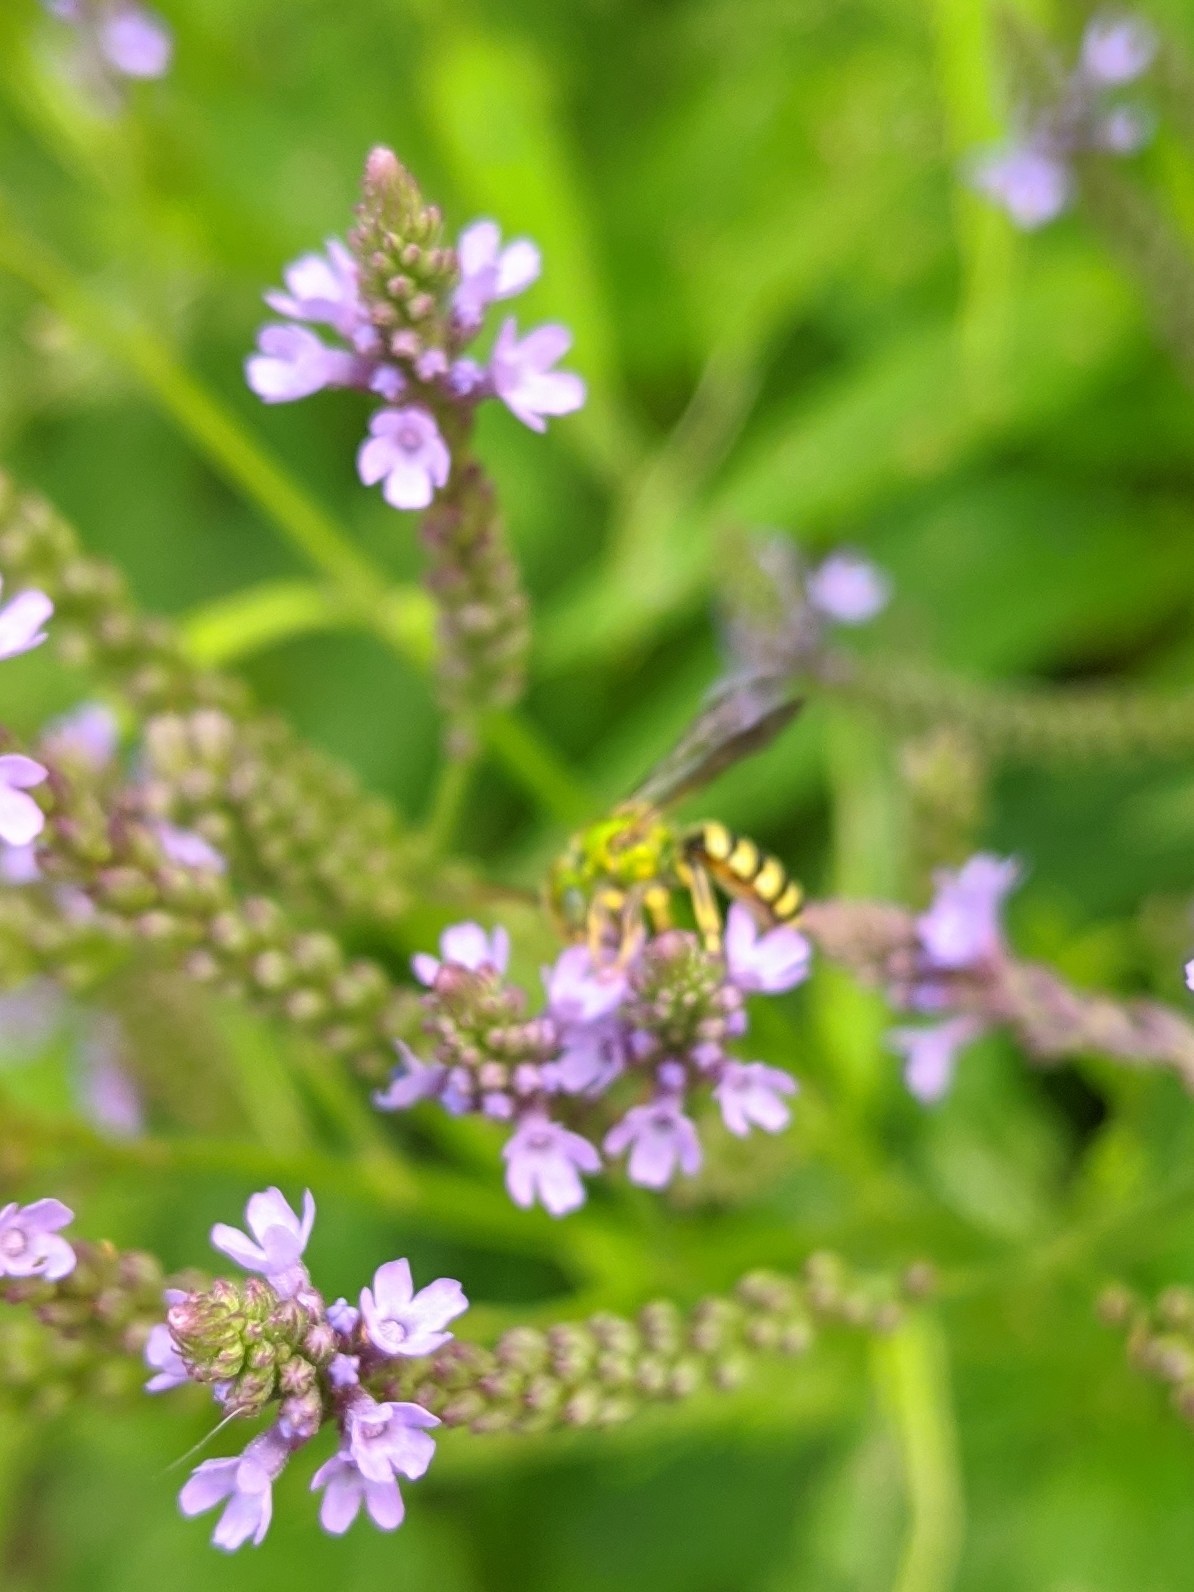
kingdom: Animalia
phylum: Arthropoda
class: Insecta
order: Hymenoptera
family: Halictidae
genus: Agapostemon
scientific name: Agapostemon
